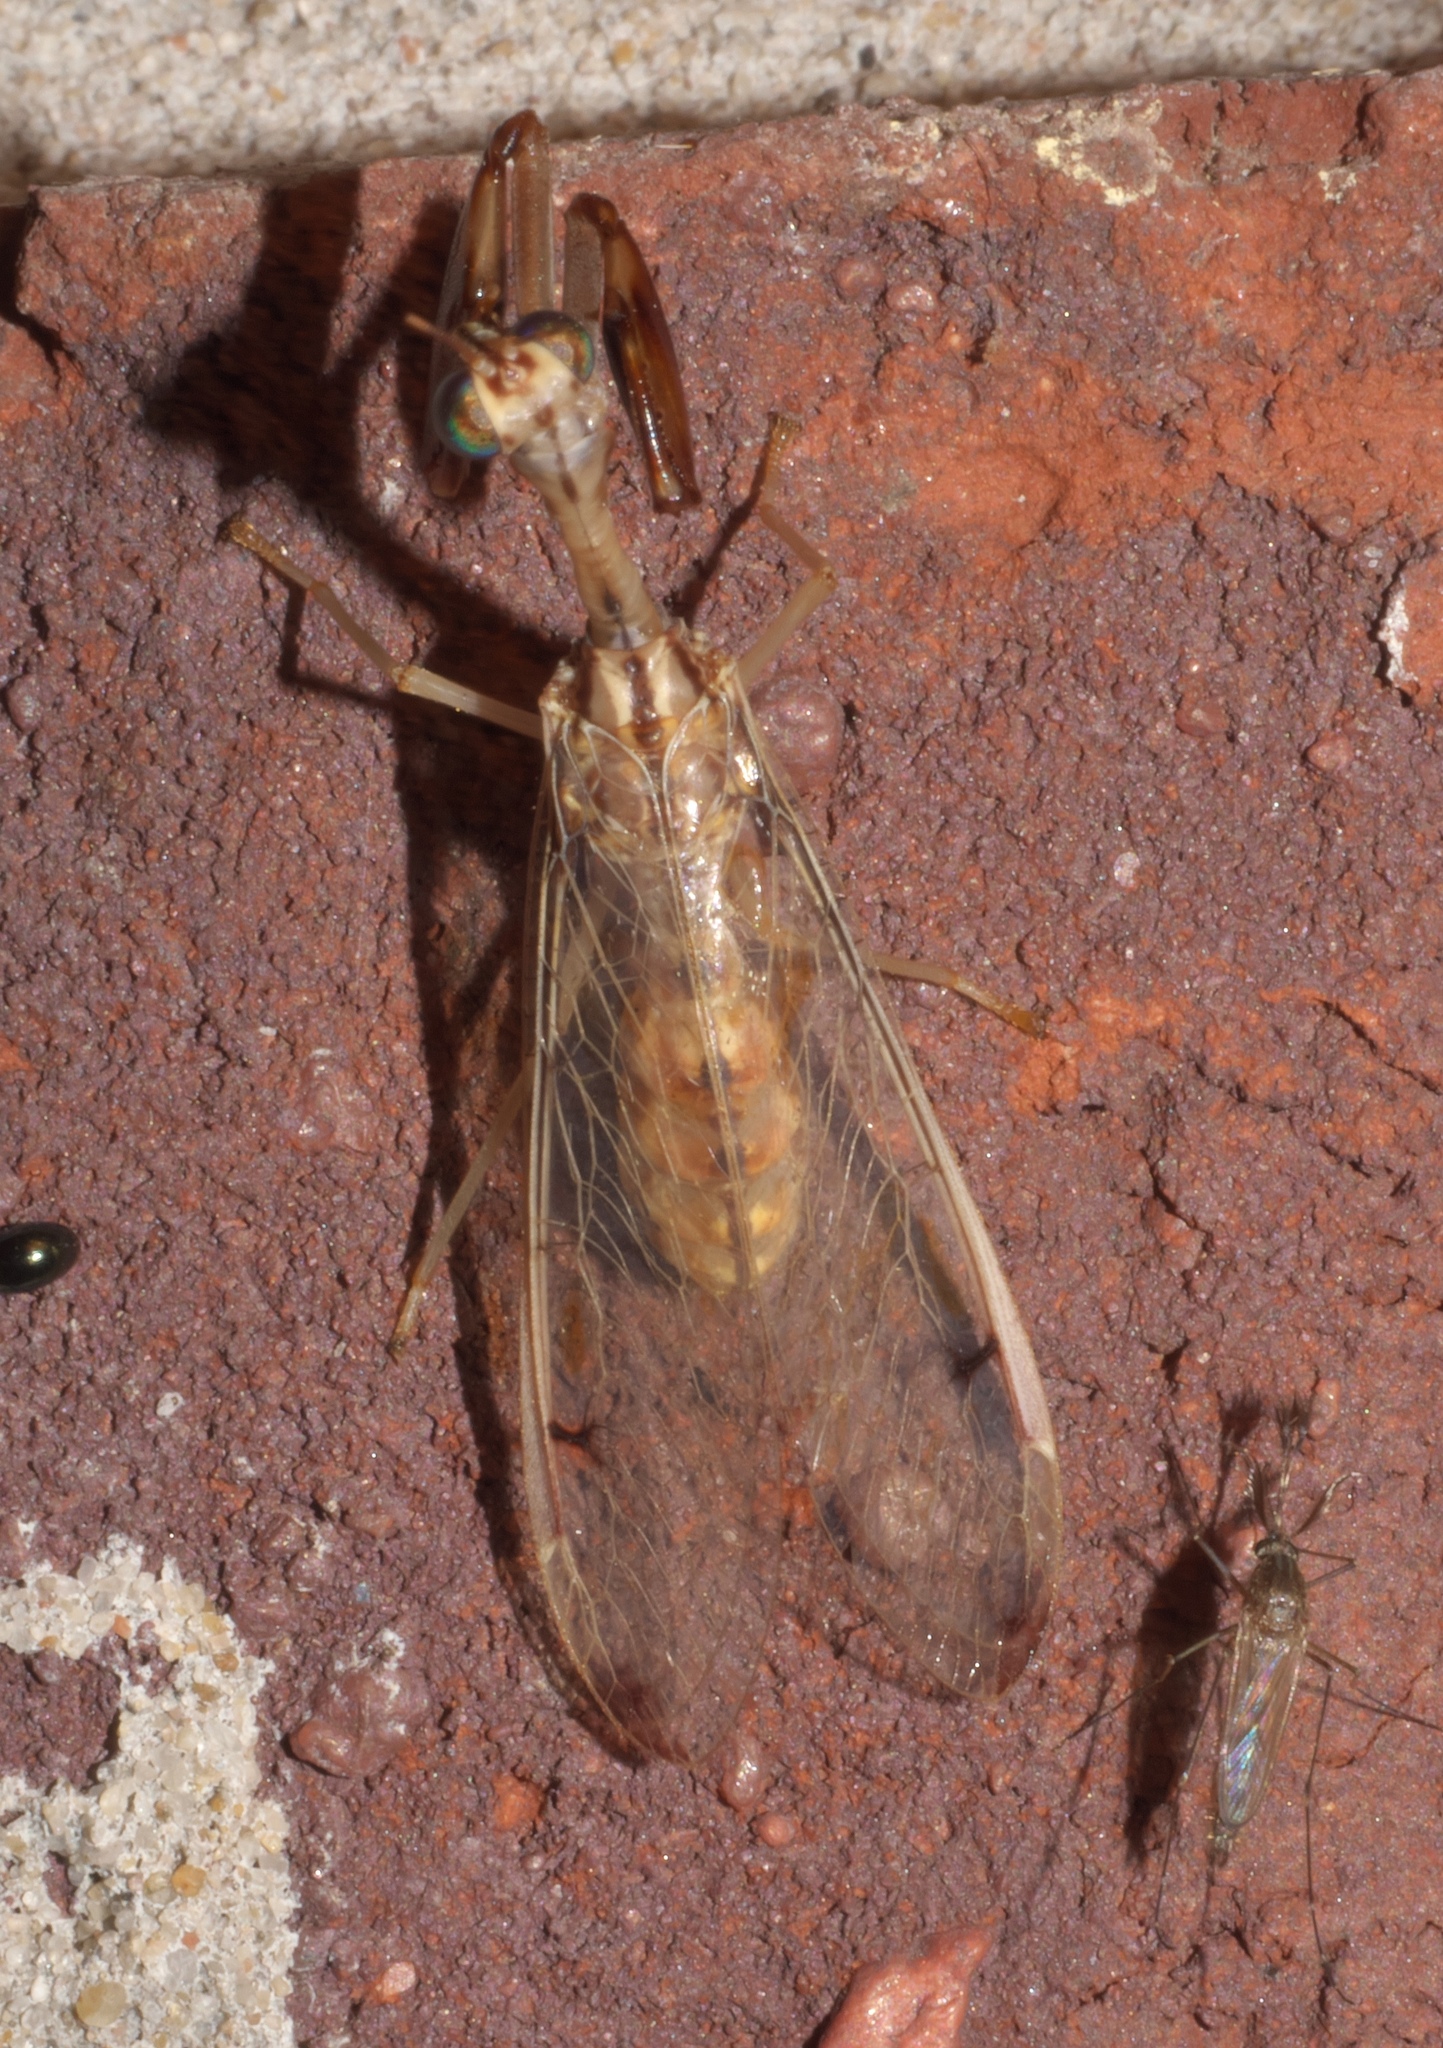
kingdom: Animalia
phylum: Arthropoda
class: Insecta
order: Neuroptera
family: Mantispidae
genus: Dicromantispa
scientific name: Dicromantispa interrupta
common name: Four-spotted mantidfly
